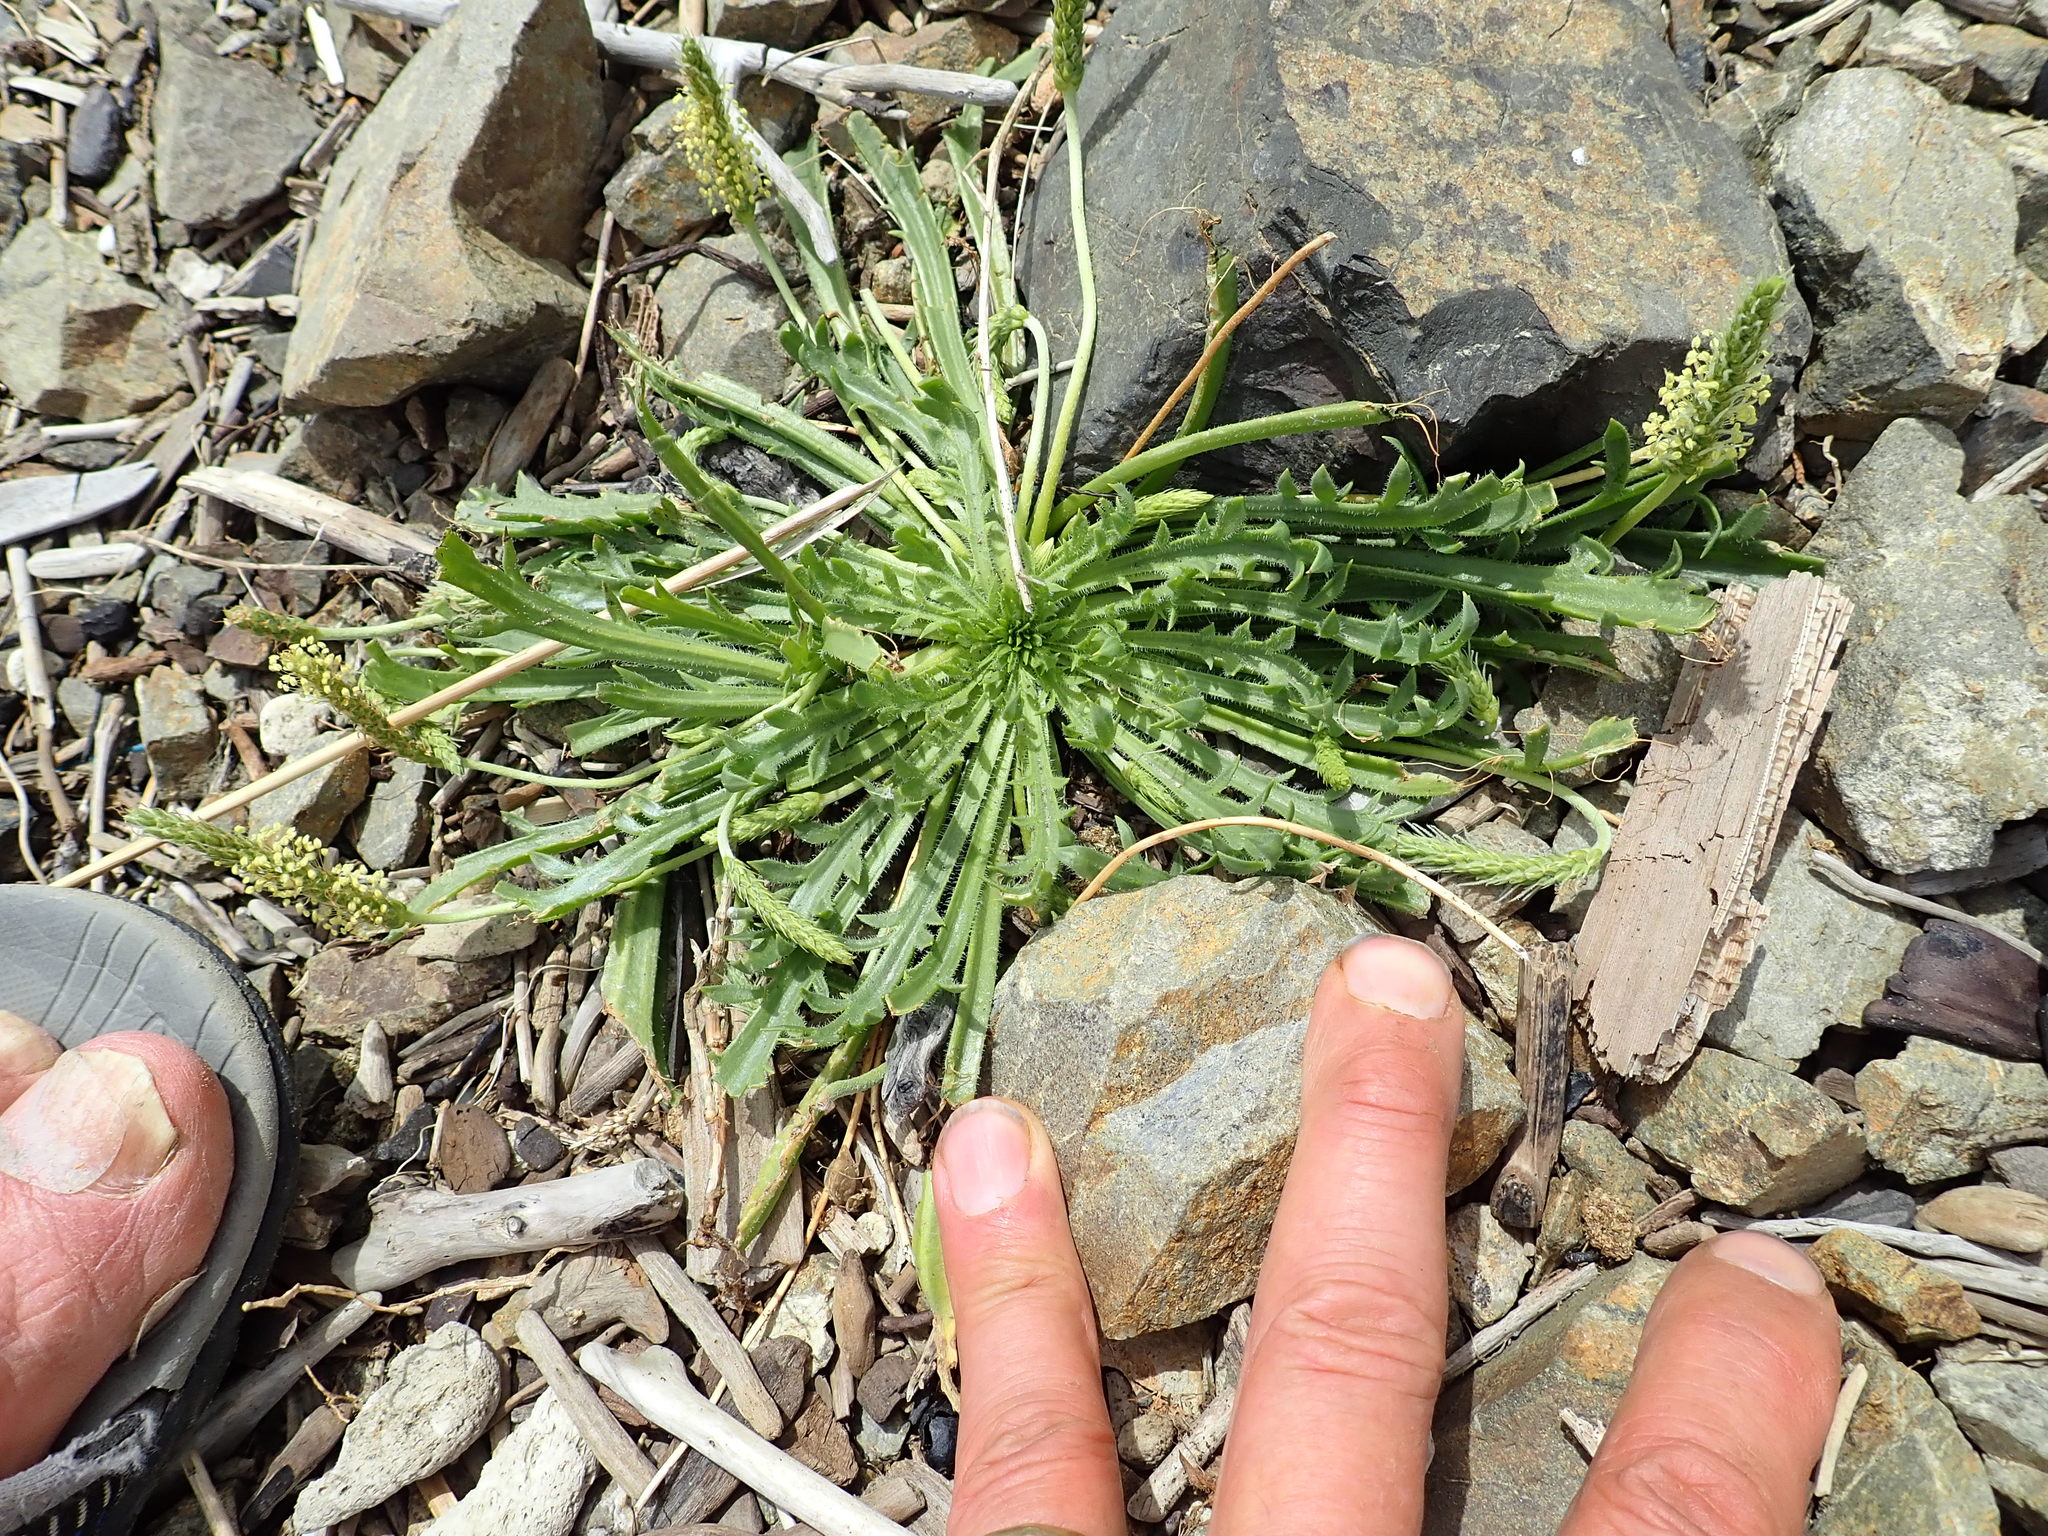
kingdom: Plantae
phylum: Tracheophyta
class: Magnoliopsida
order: Lamiales
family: Plantaginaceae
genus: Plantago
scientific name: Plantago coronopus
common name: Buck's-horn plantain
